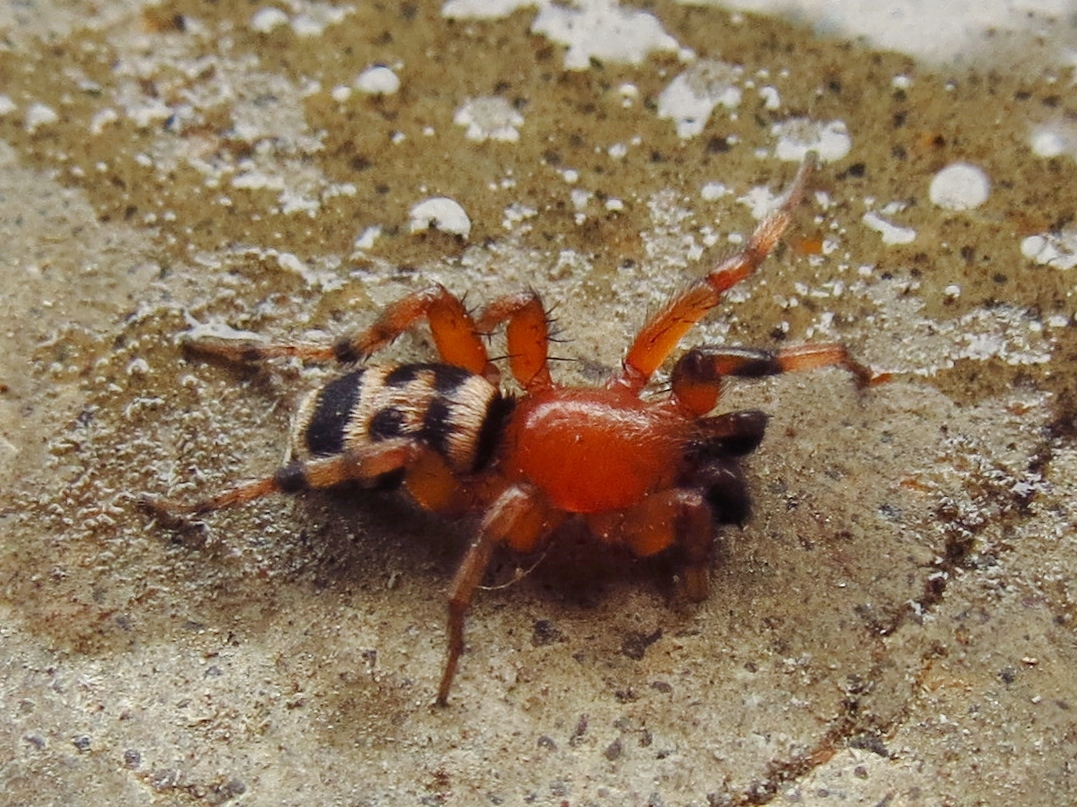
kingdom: Animalia
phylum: Arthropoda
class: Arachnida
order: Araneae
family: Gnaphosidae
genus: Sergiolus
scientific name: Sergiolus capulatus
